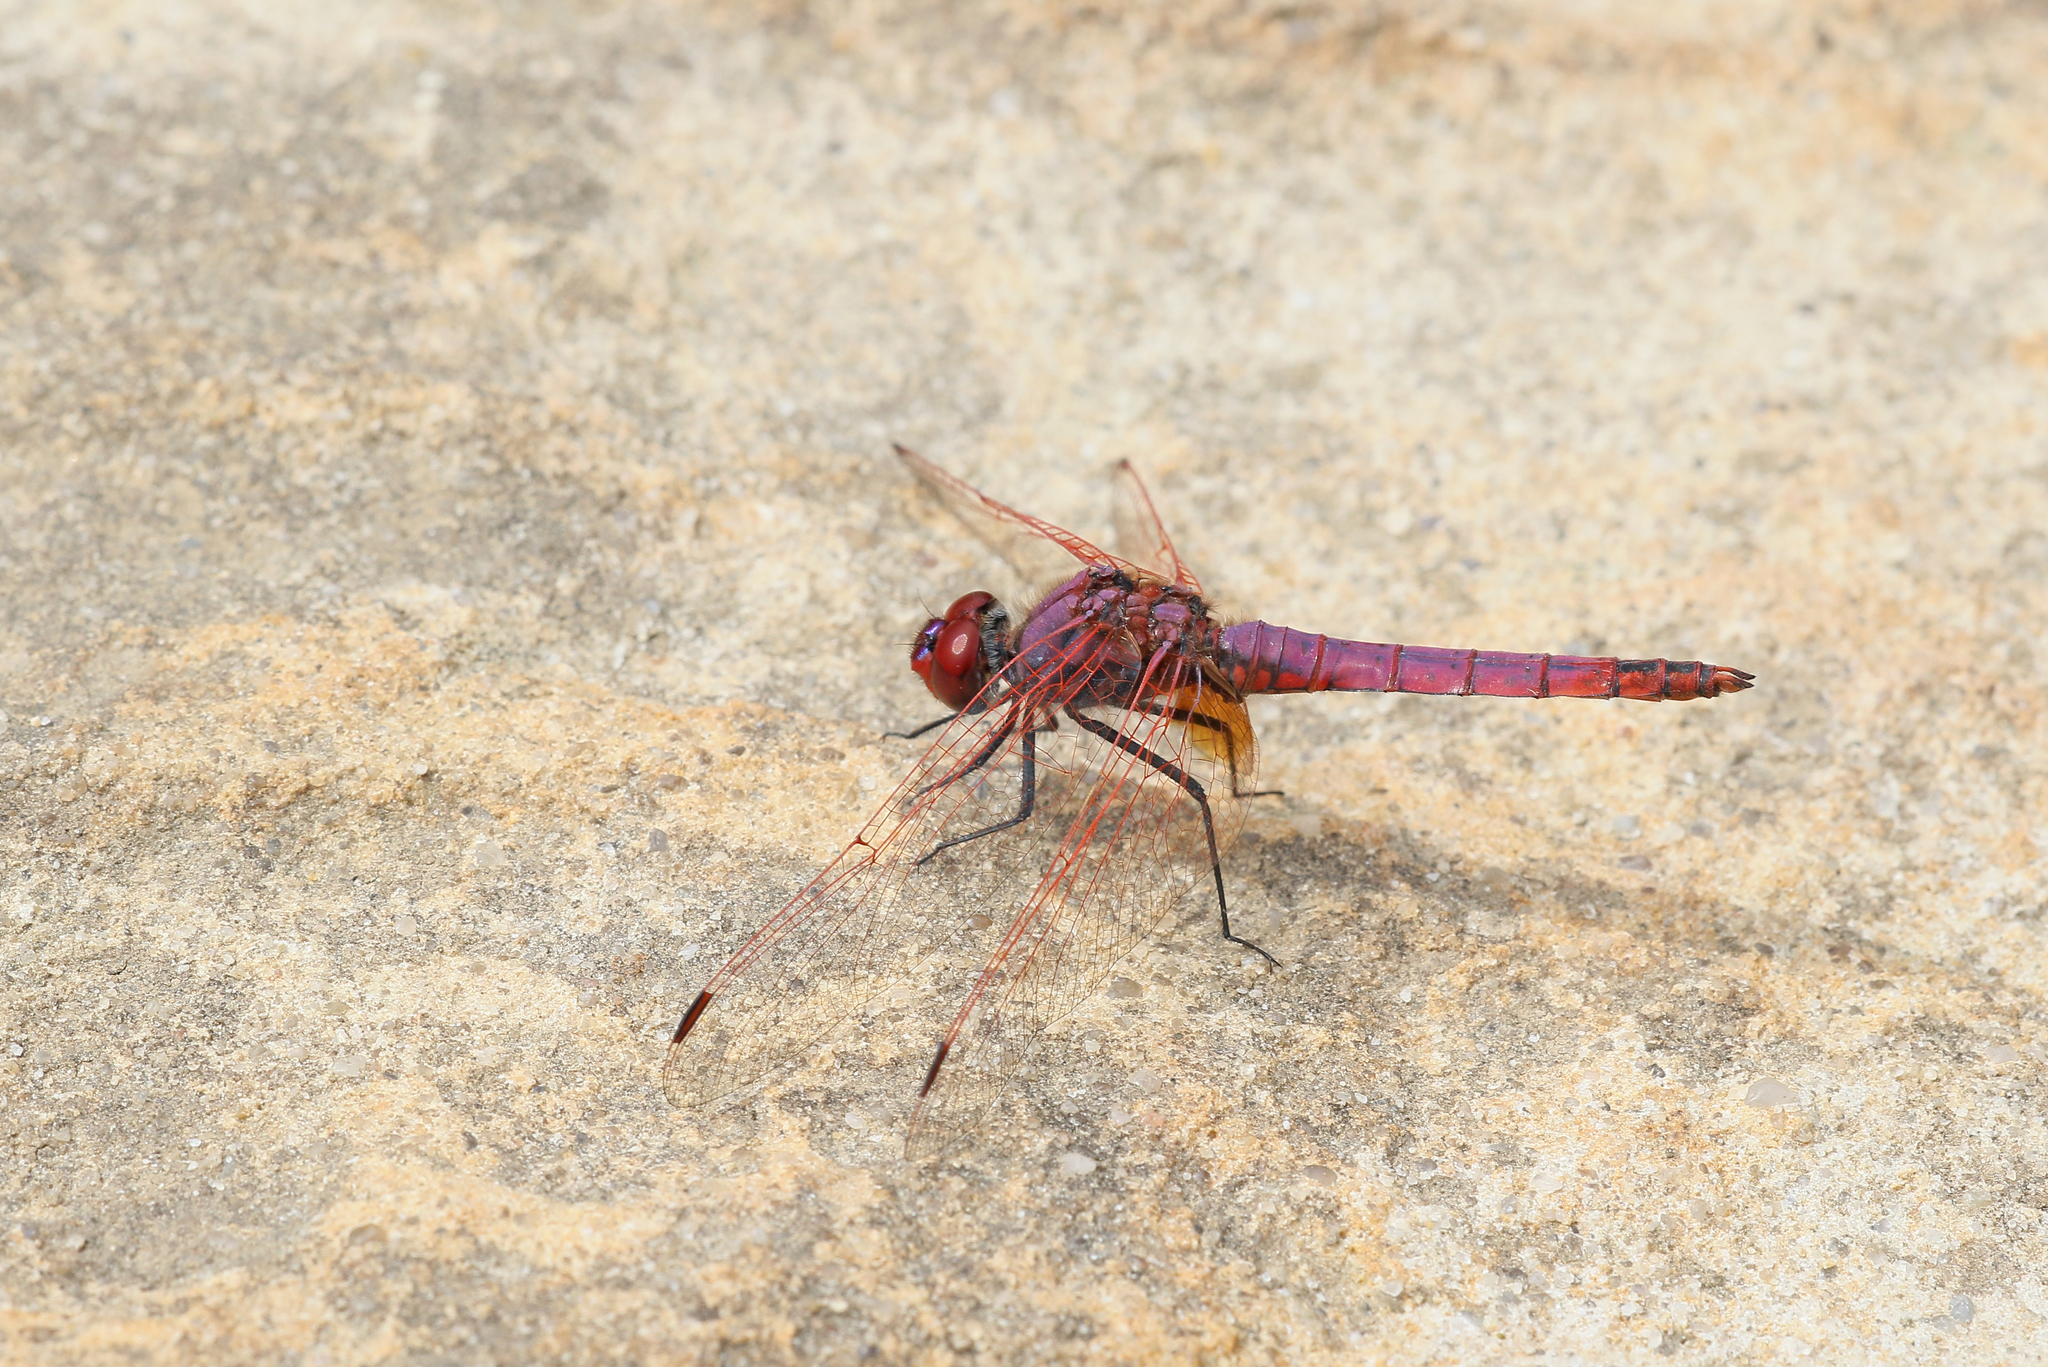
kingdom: Animalia
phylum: Arthropoda
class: Insecta
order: Odonata
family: Libellulidae
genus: Trithemis
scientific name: Trithemis annulata
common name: Violet dropwing
